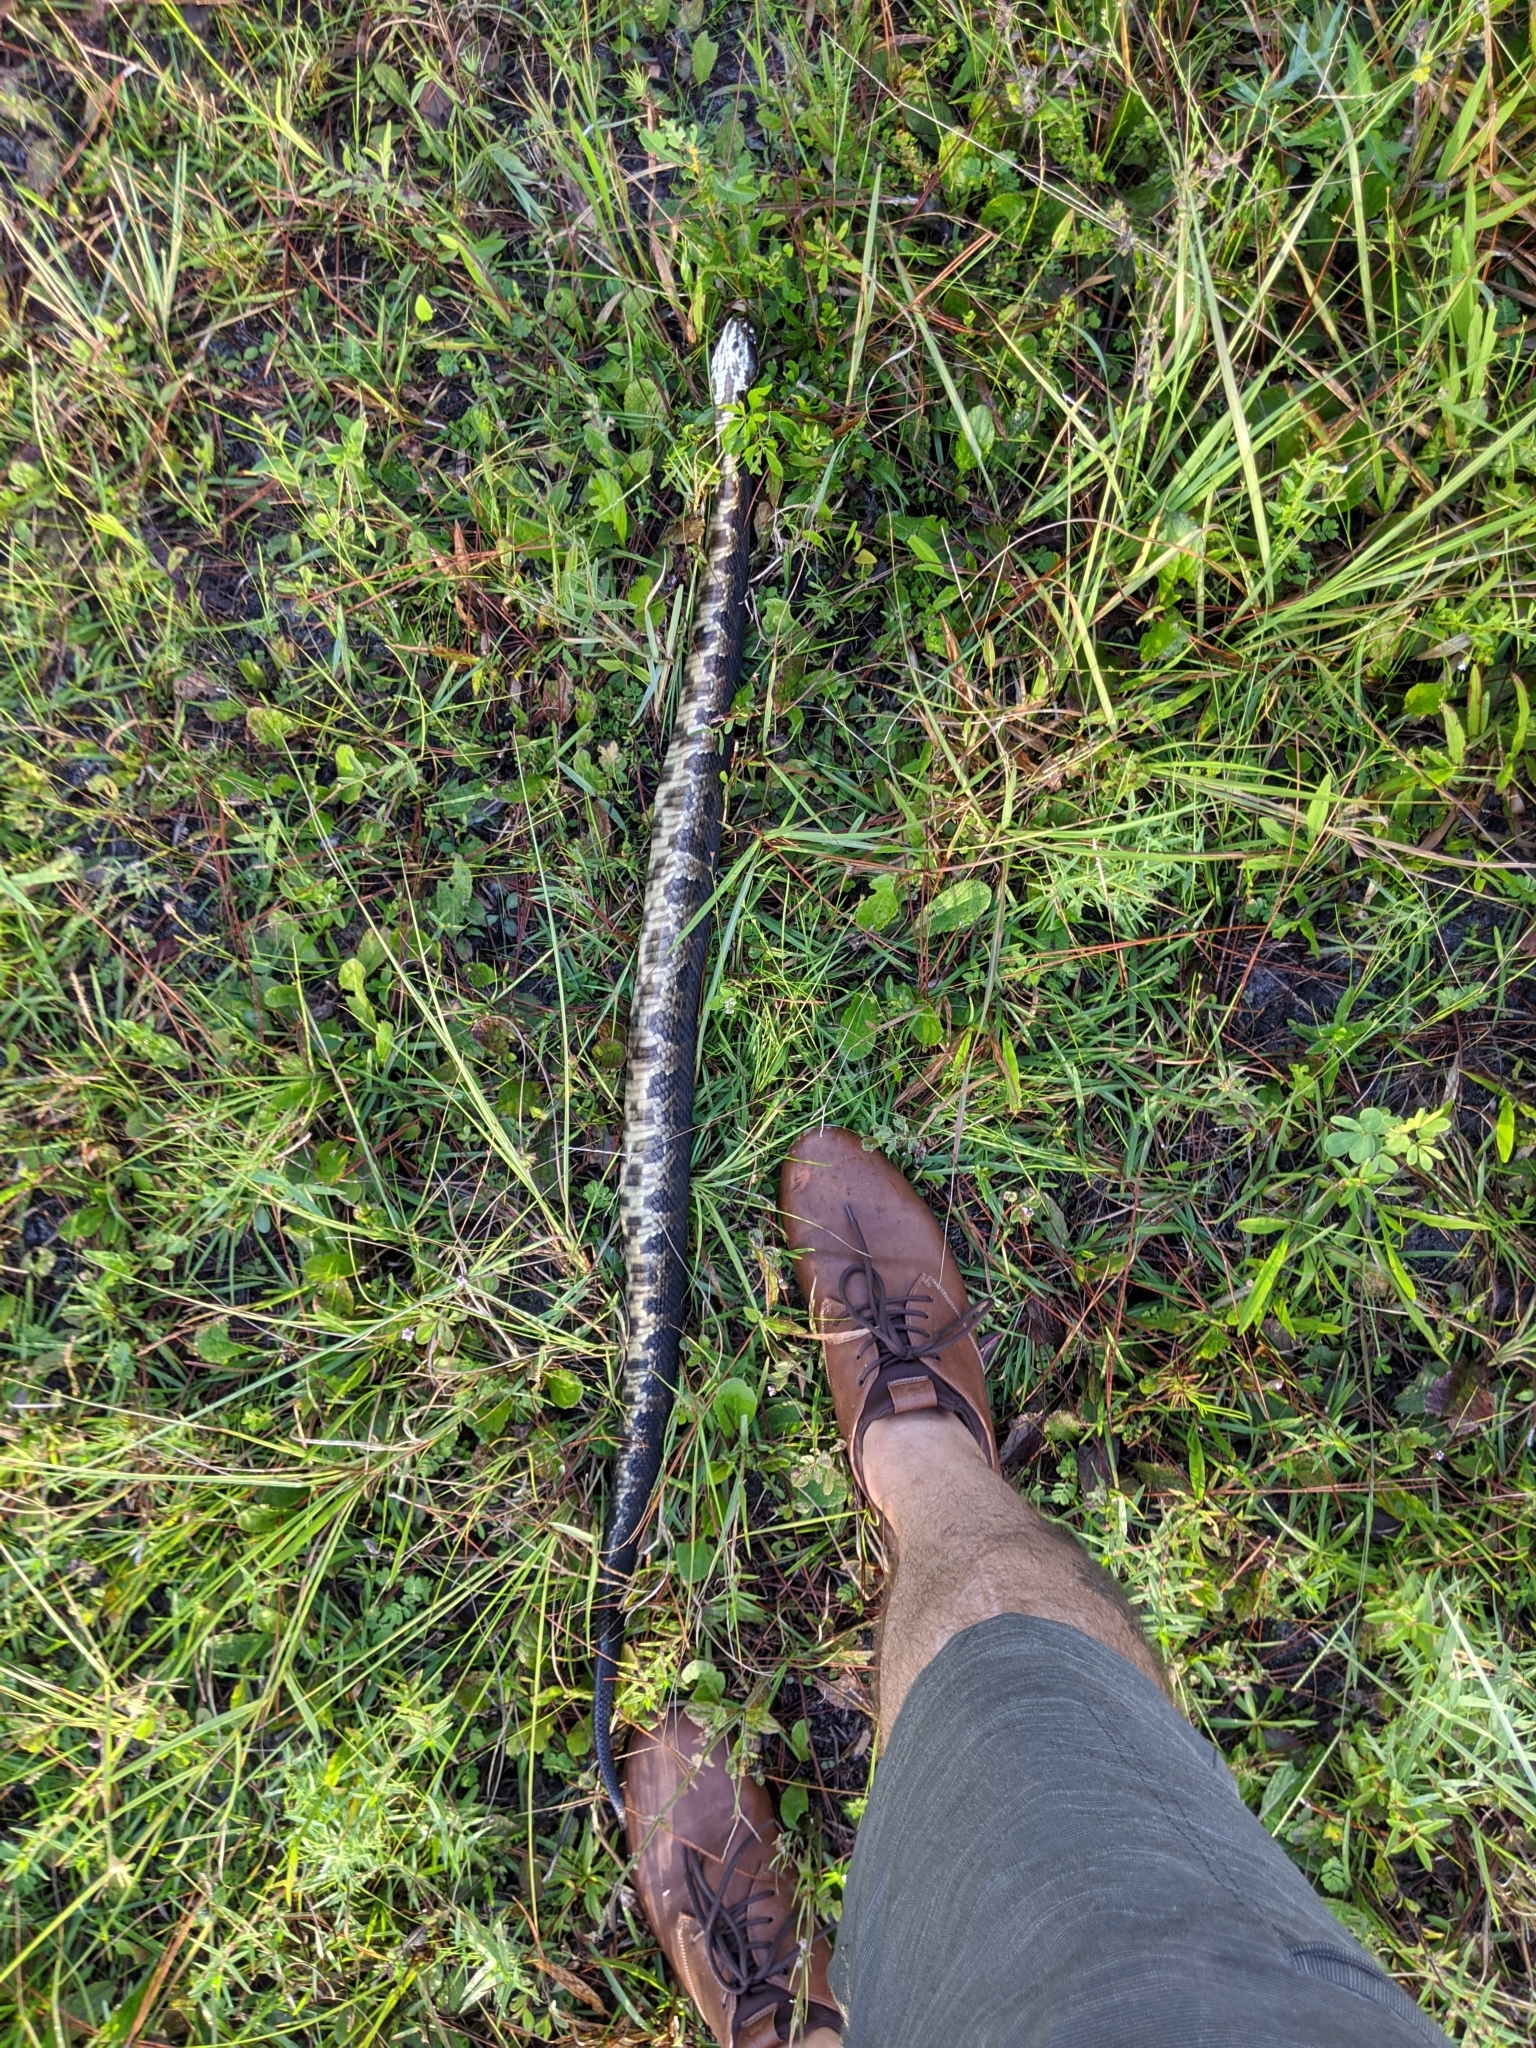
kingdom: Animalia
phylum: Chordata
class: Squamata
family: Viperidae
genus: Agkistrodon
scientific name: Agkistrodon conanti
